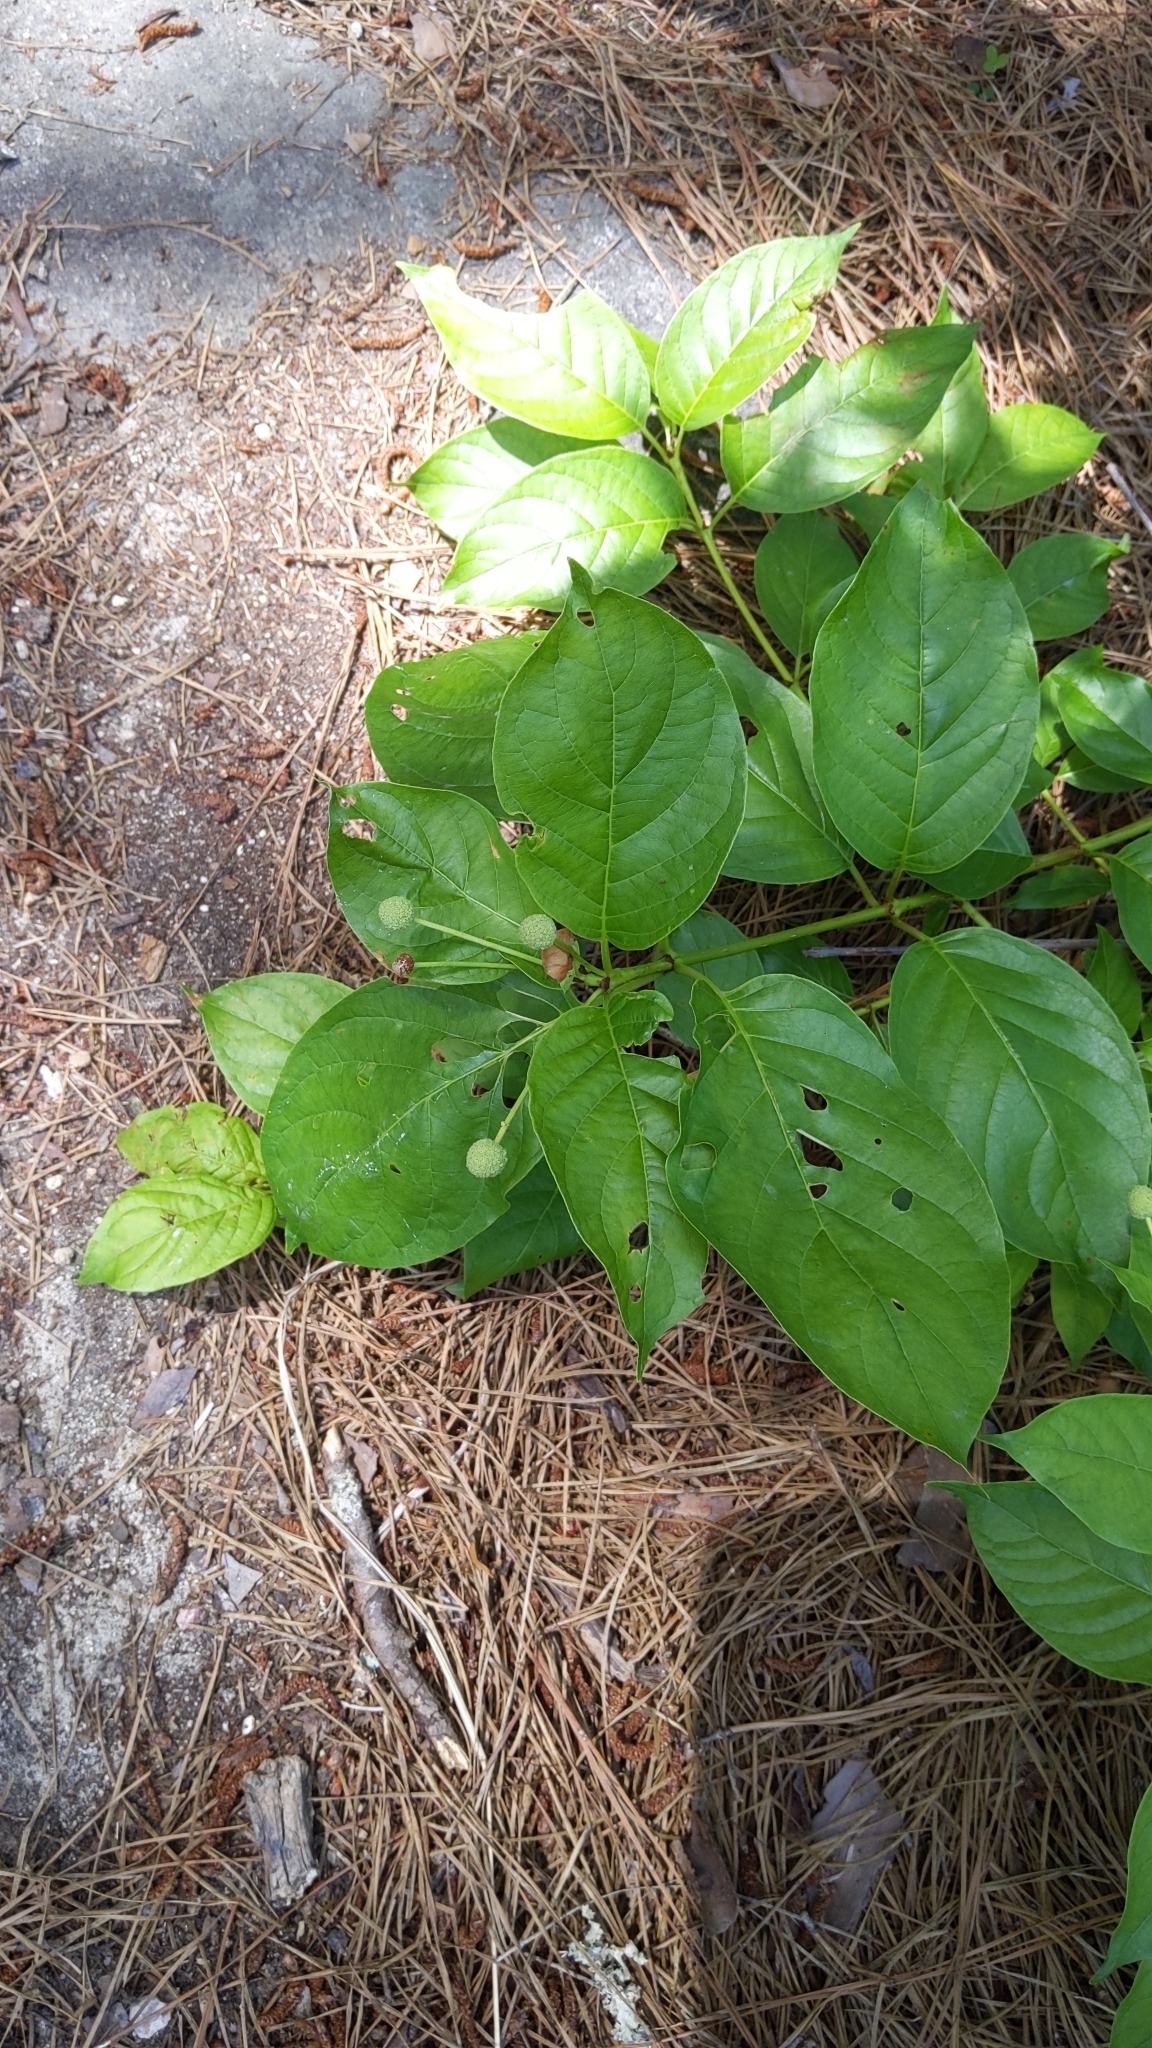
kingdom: Plantae
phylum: Tracheophyta
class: Magnoliopsida
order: Gentianales
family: Rubiaceae
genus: Cephalanthus
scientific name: Cephalanthus occidentalis
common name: Button-willow
